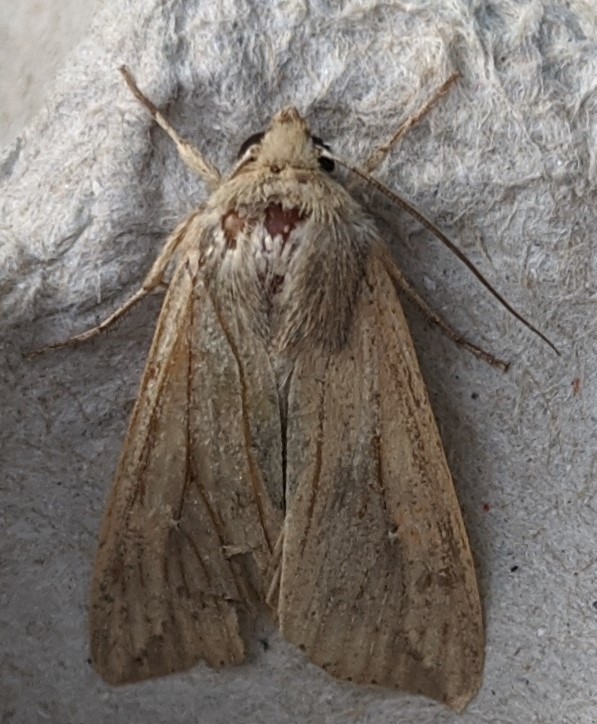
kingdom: Animalia
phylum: Arthropoda
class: Insecta
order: Lepidoptera
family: Noctuidae
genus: Mythimna
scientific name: Mythimna unipuncta
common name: White-speck
